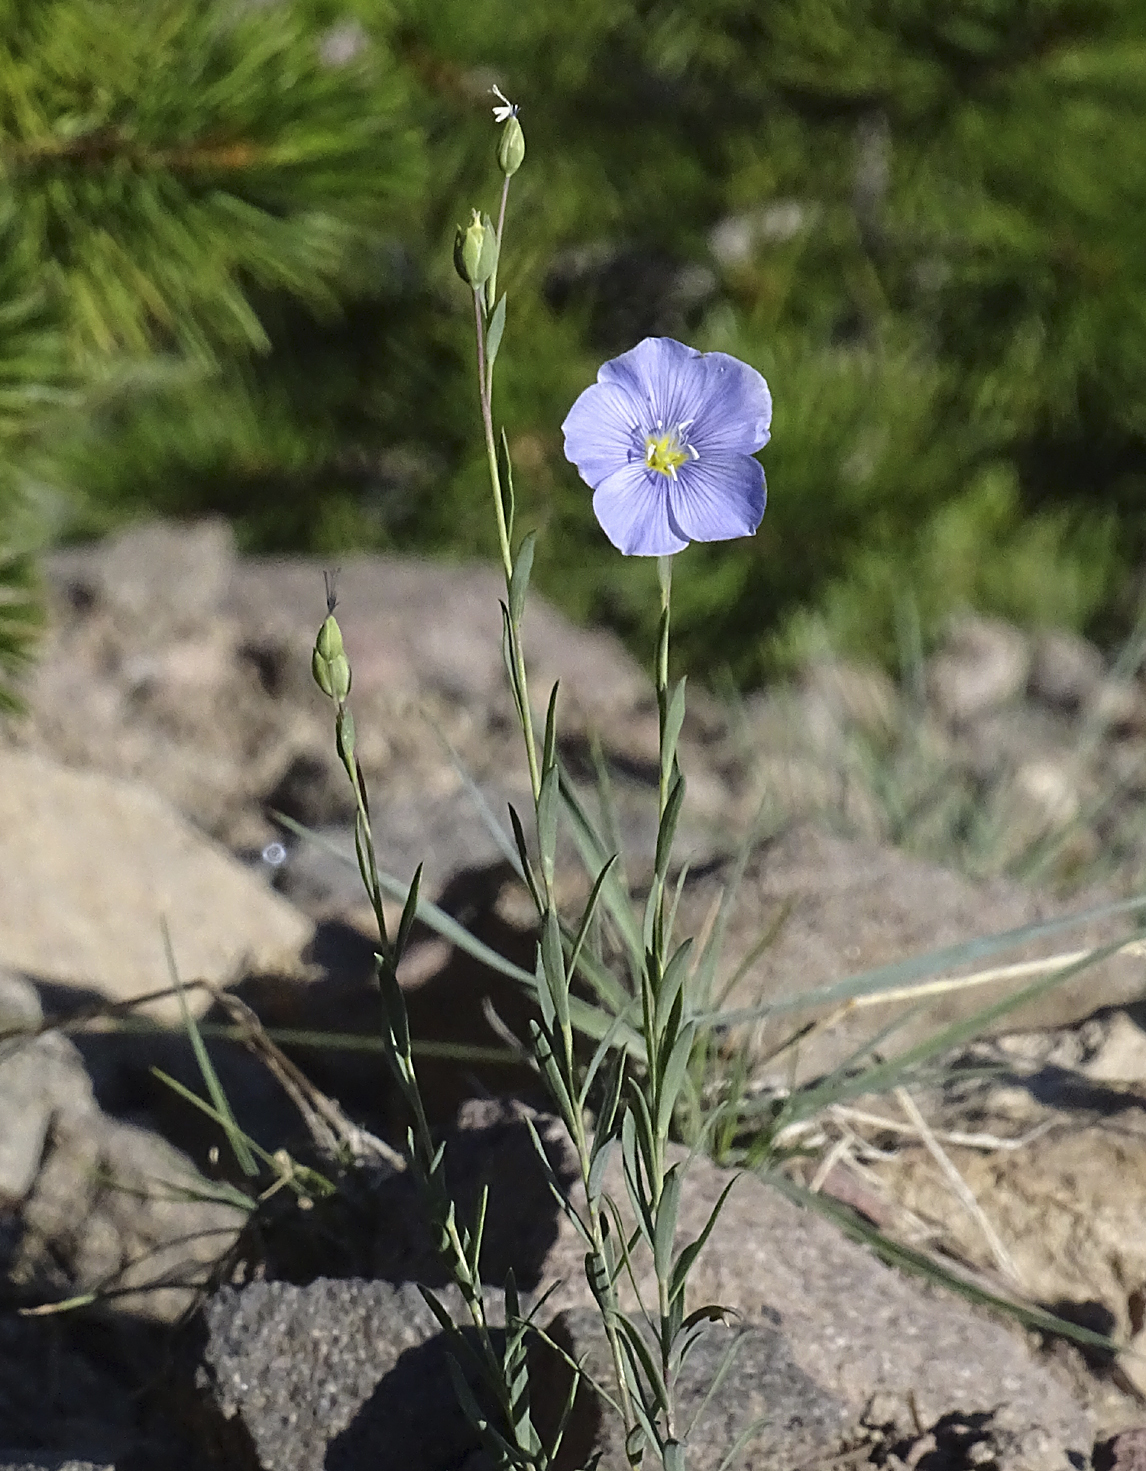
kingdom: Plantae
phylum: Tracheophyta
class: Magnoliopsida
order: Malpighiales
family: Linaceae
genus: Linum
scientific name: Linum lewisii
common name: Prairie flax
